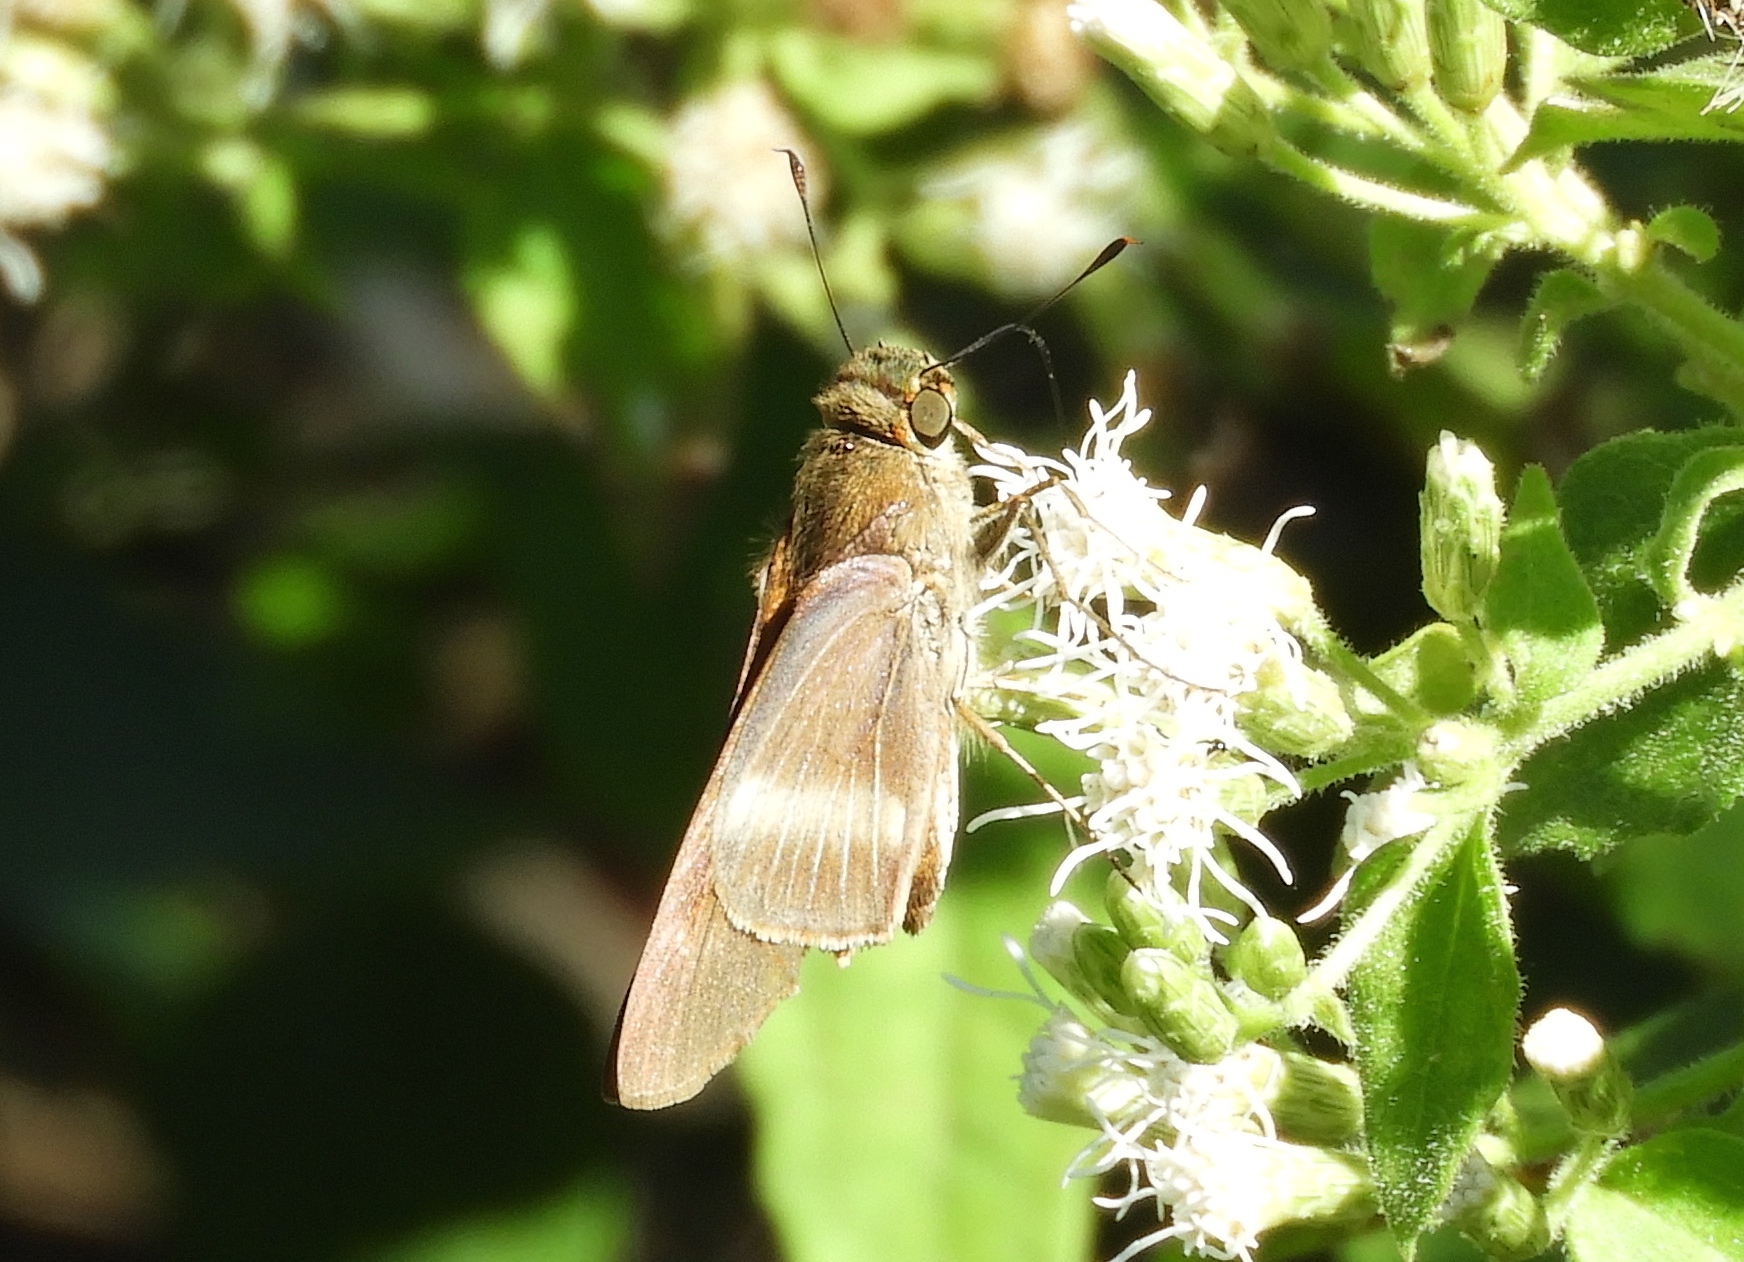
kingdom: Animalia
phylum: Arthropoda
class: Insecta
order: Lepidoptera
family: Hesperiidae
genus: Panoquina
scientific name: Panoquina fusina
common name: Evans' skipper
